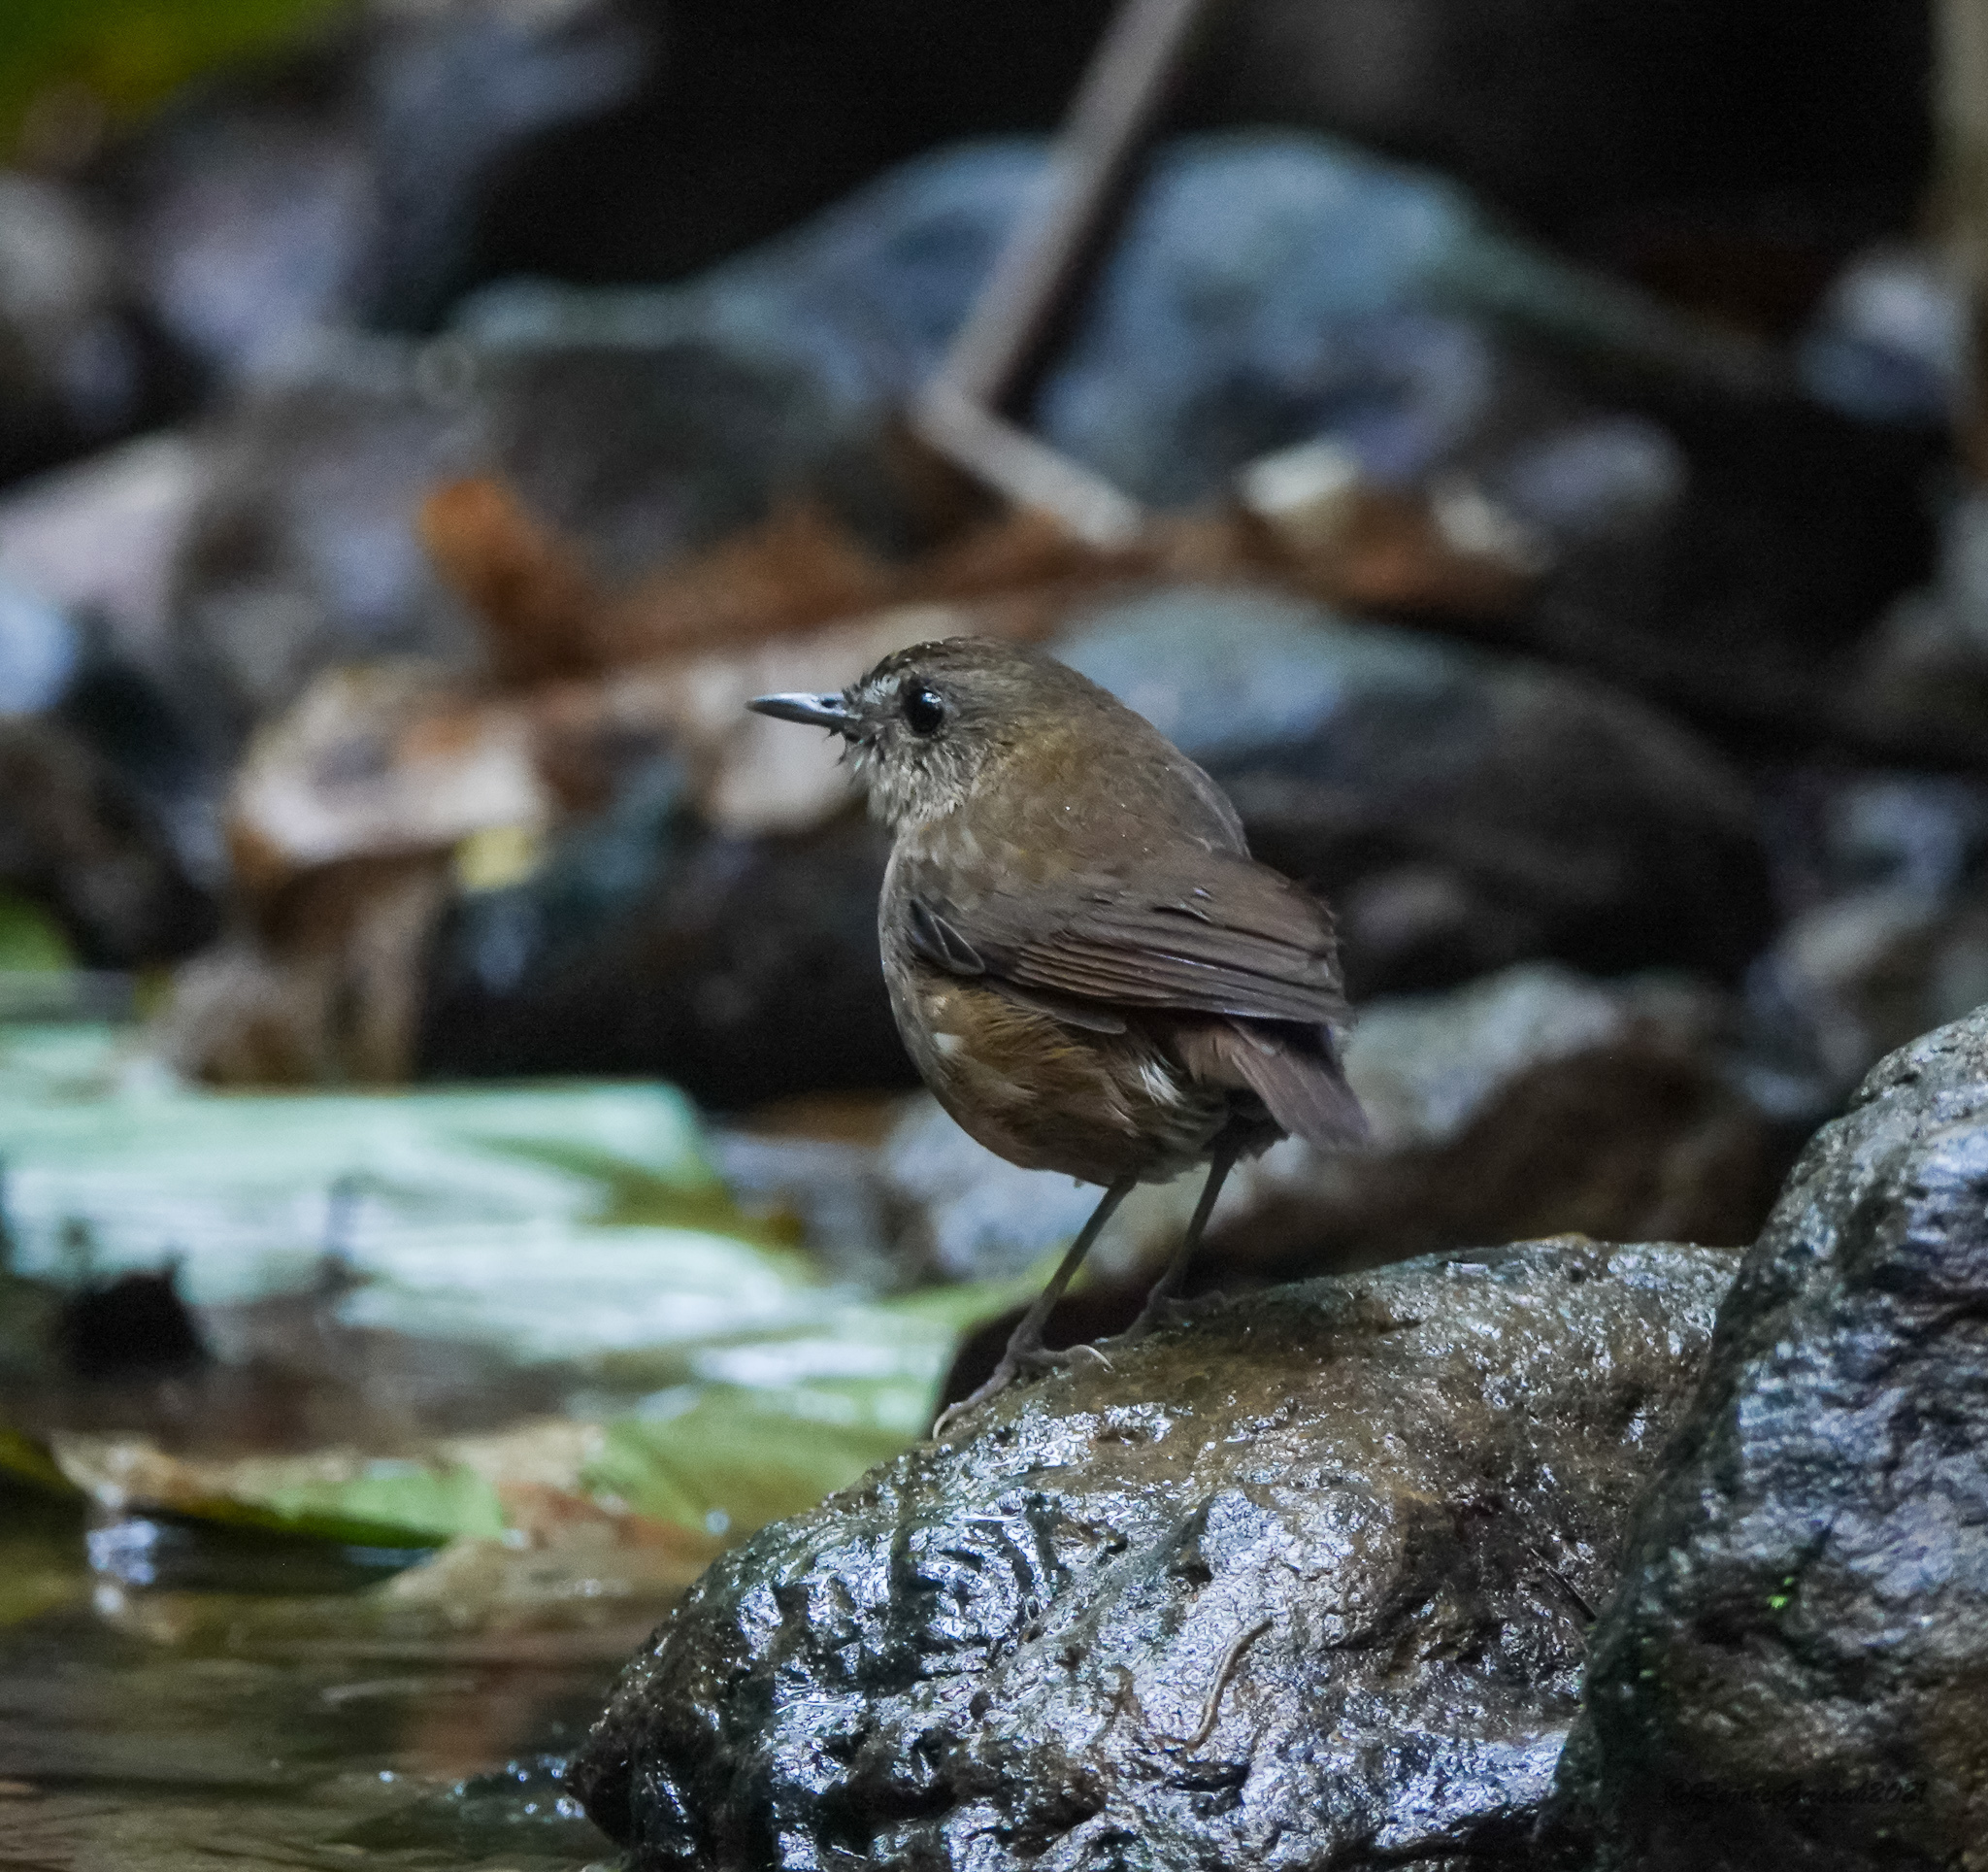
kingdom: Animalia
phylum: Chordata
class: Aves
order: Passeriformes
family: Muscicapidae
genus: Brachypteryx
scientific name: Brachypteryx leucophris
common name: Lesser shortwing
